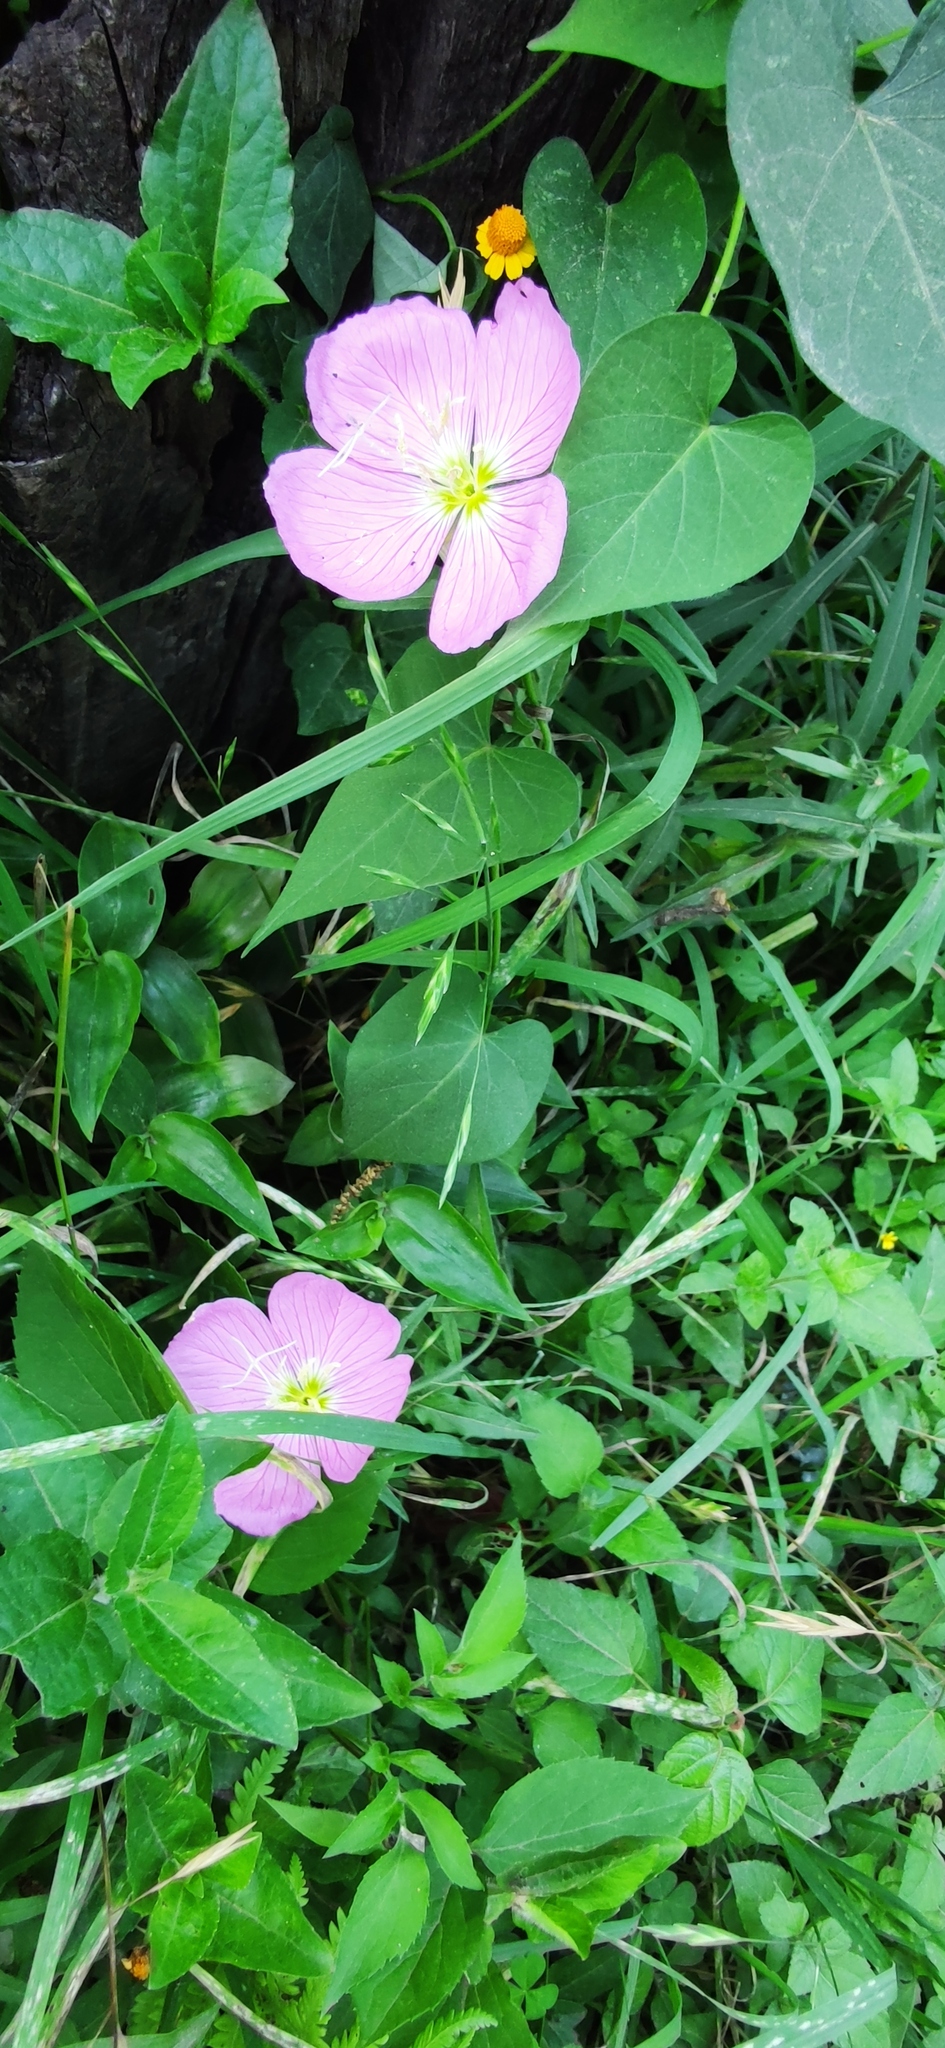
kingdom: Plantae
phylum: Tracheophyta
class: Magnoliopsida
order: Myrtales
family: Onagraceae
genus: Oenothera
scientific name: Oenothera speciosa
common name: White evening-primrose
